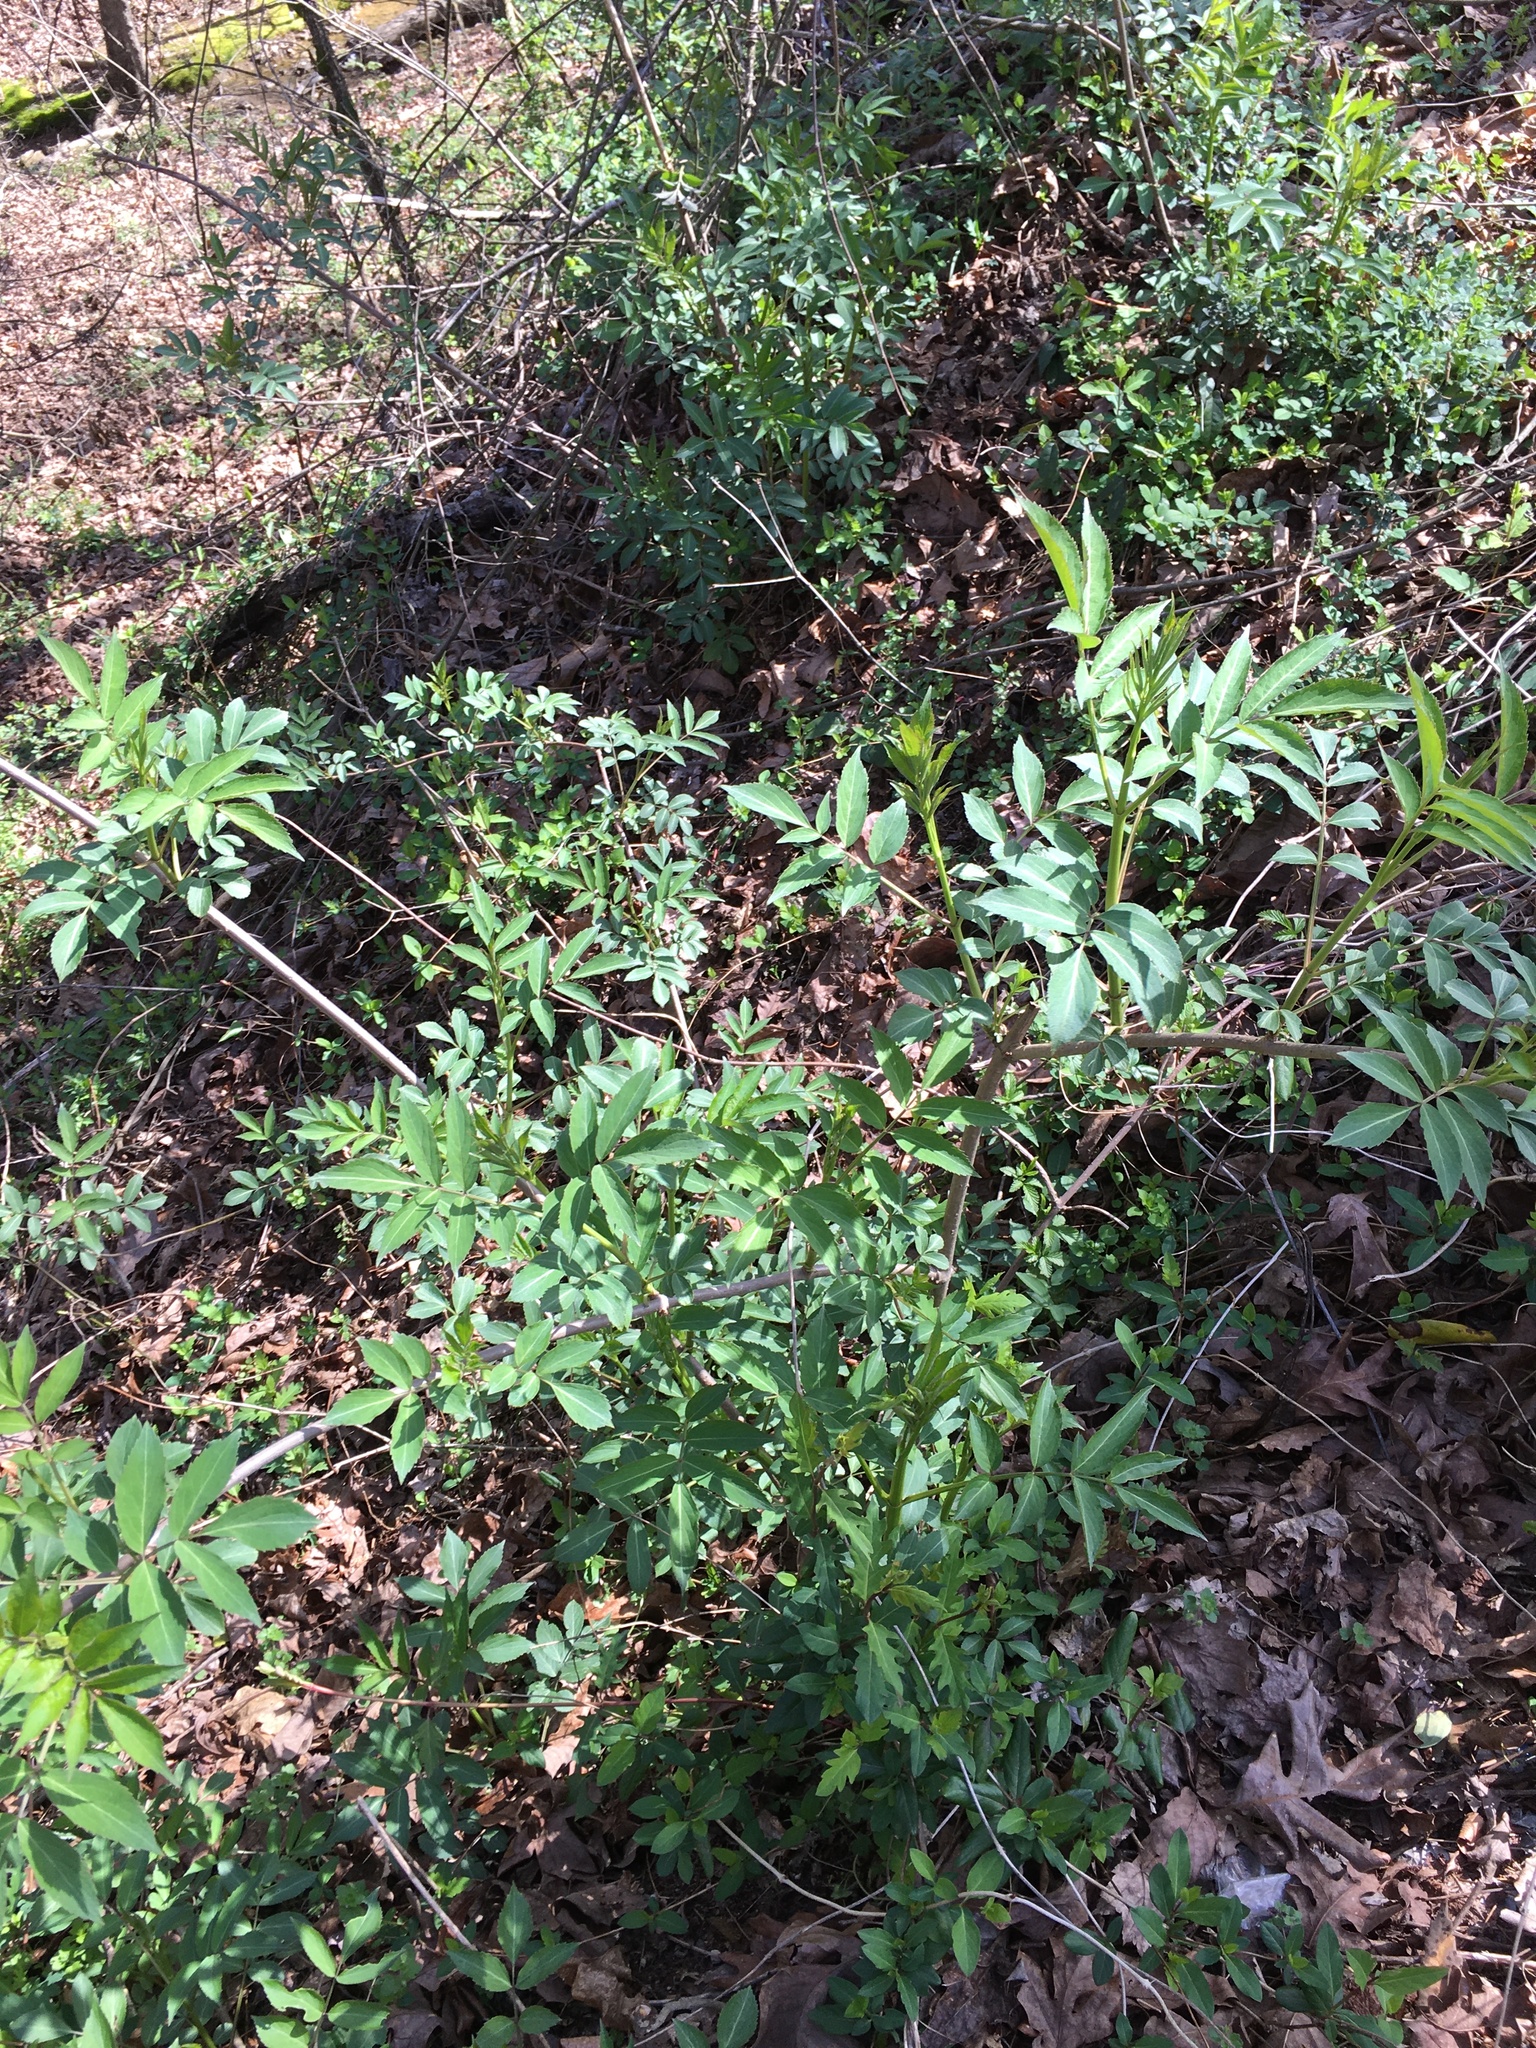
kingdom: Plantae
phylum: Tracheophyta
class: Magnoliopsida
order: Dipsacales
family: Viburnaceae
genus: Sambucus
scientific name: Sambucus canadensis
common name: American elder
